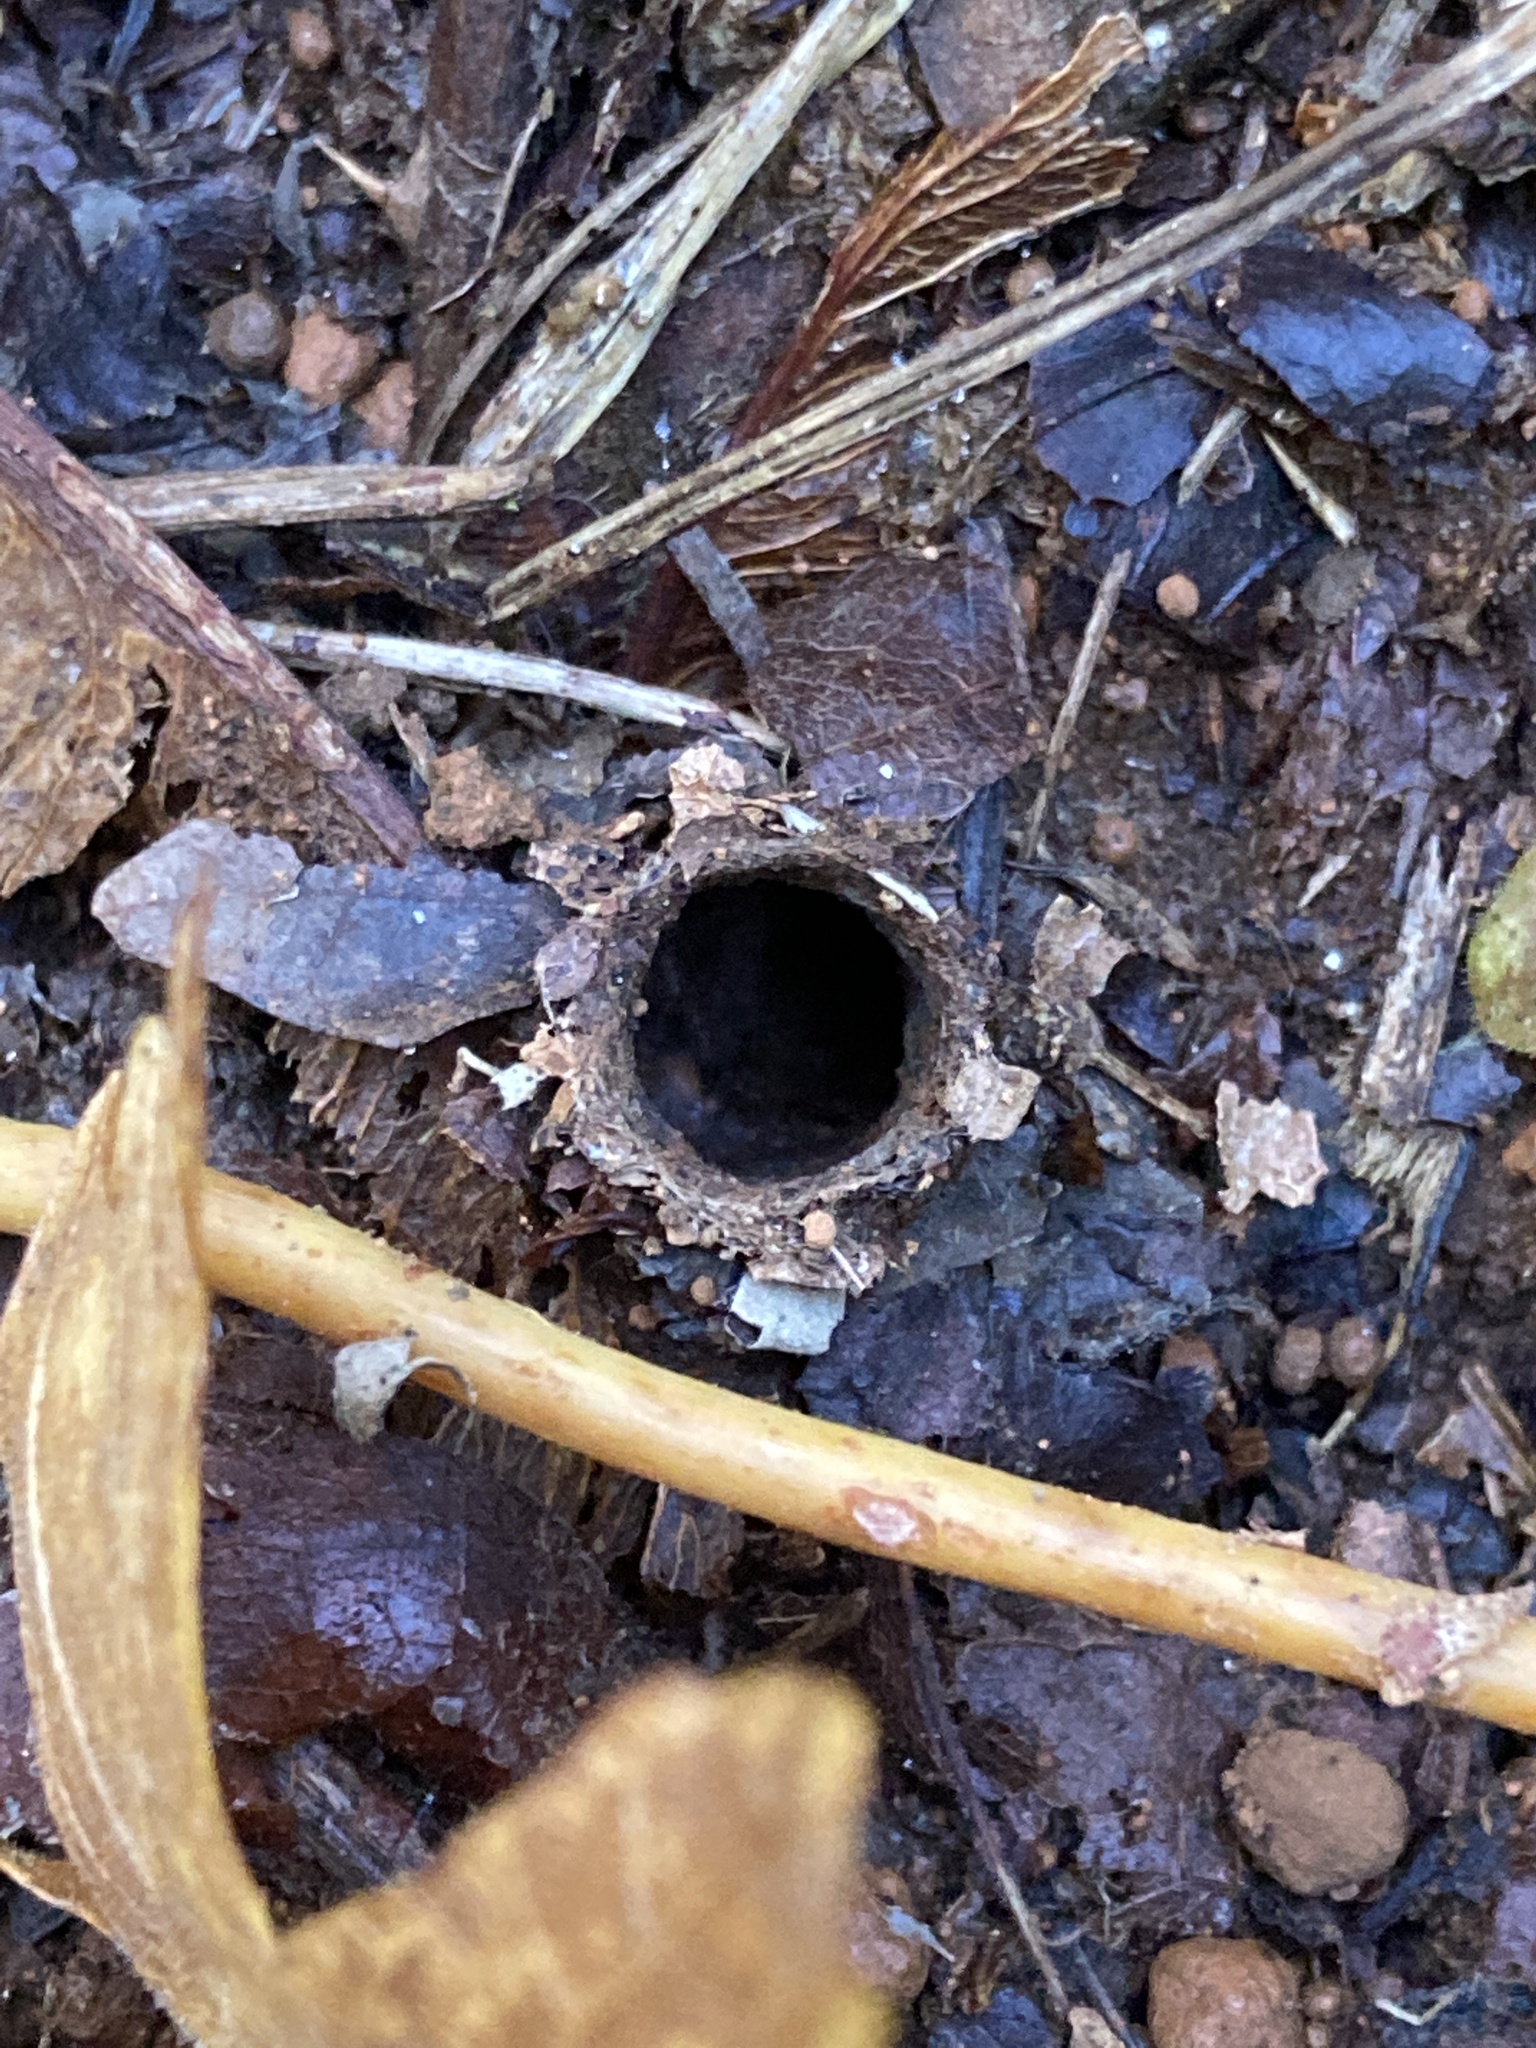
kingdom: Animalia
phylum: Arthropoda
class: Arachnida
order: Araneae
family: Antrodiaetidae
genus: Atypoides
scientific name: Atypoides riversi
